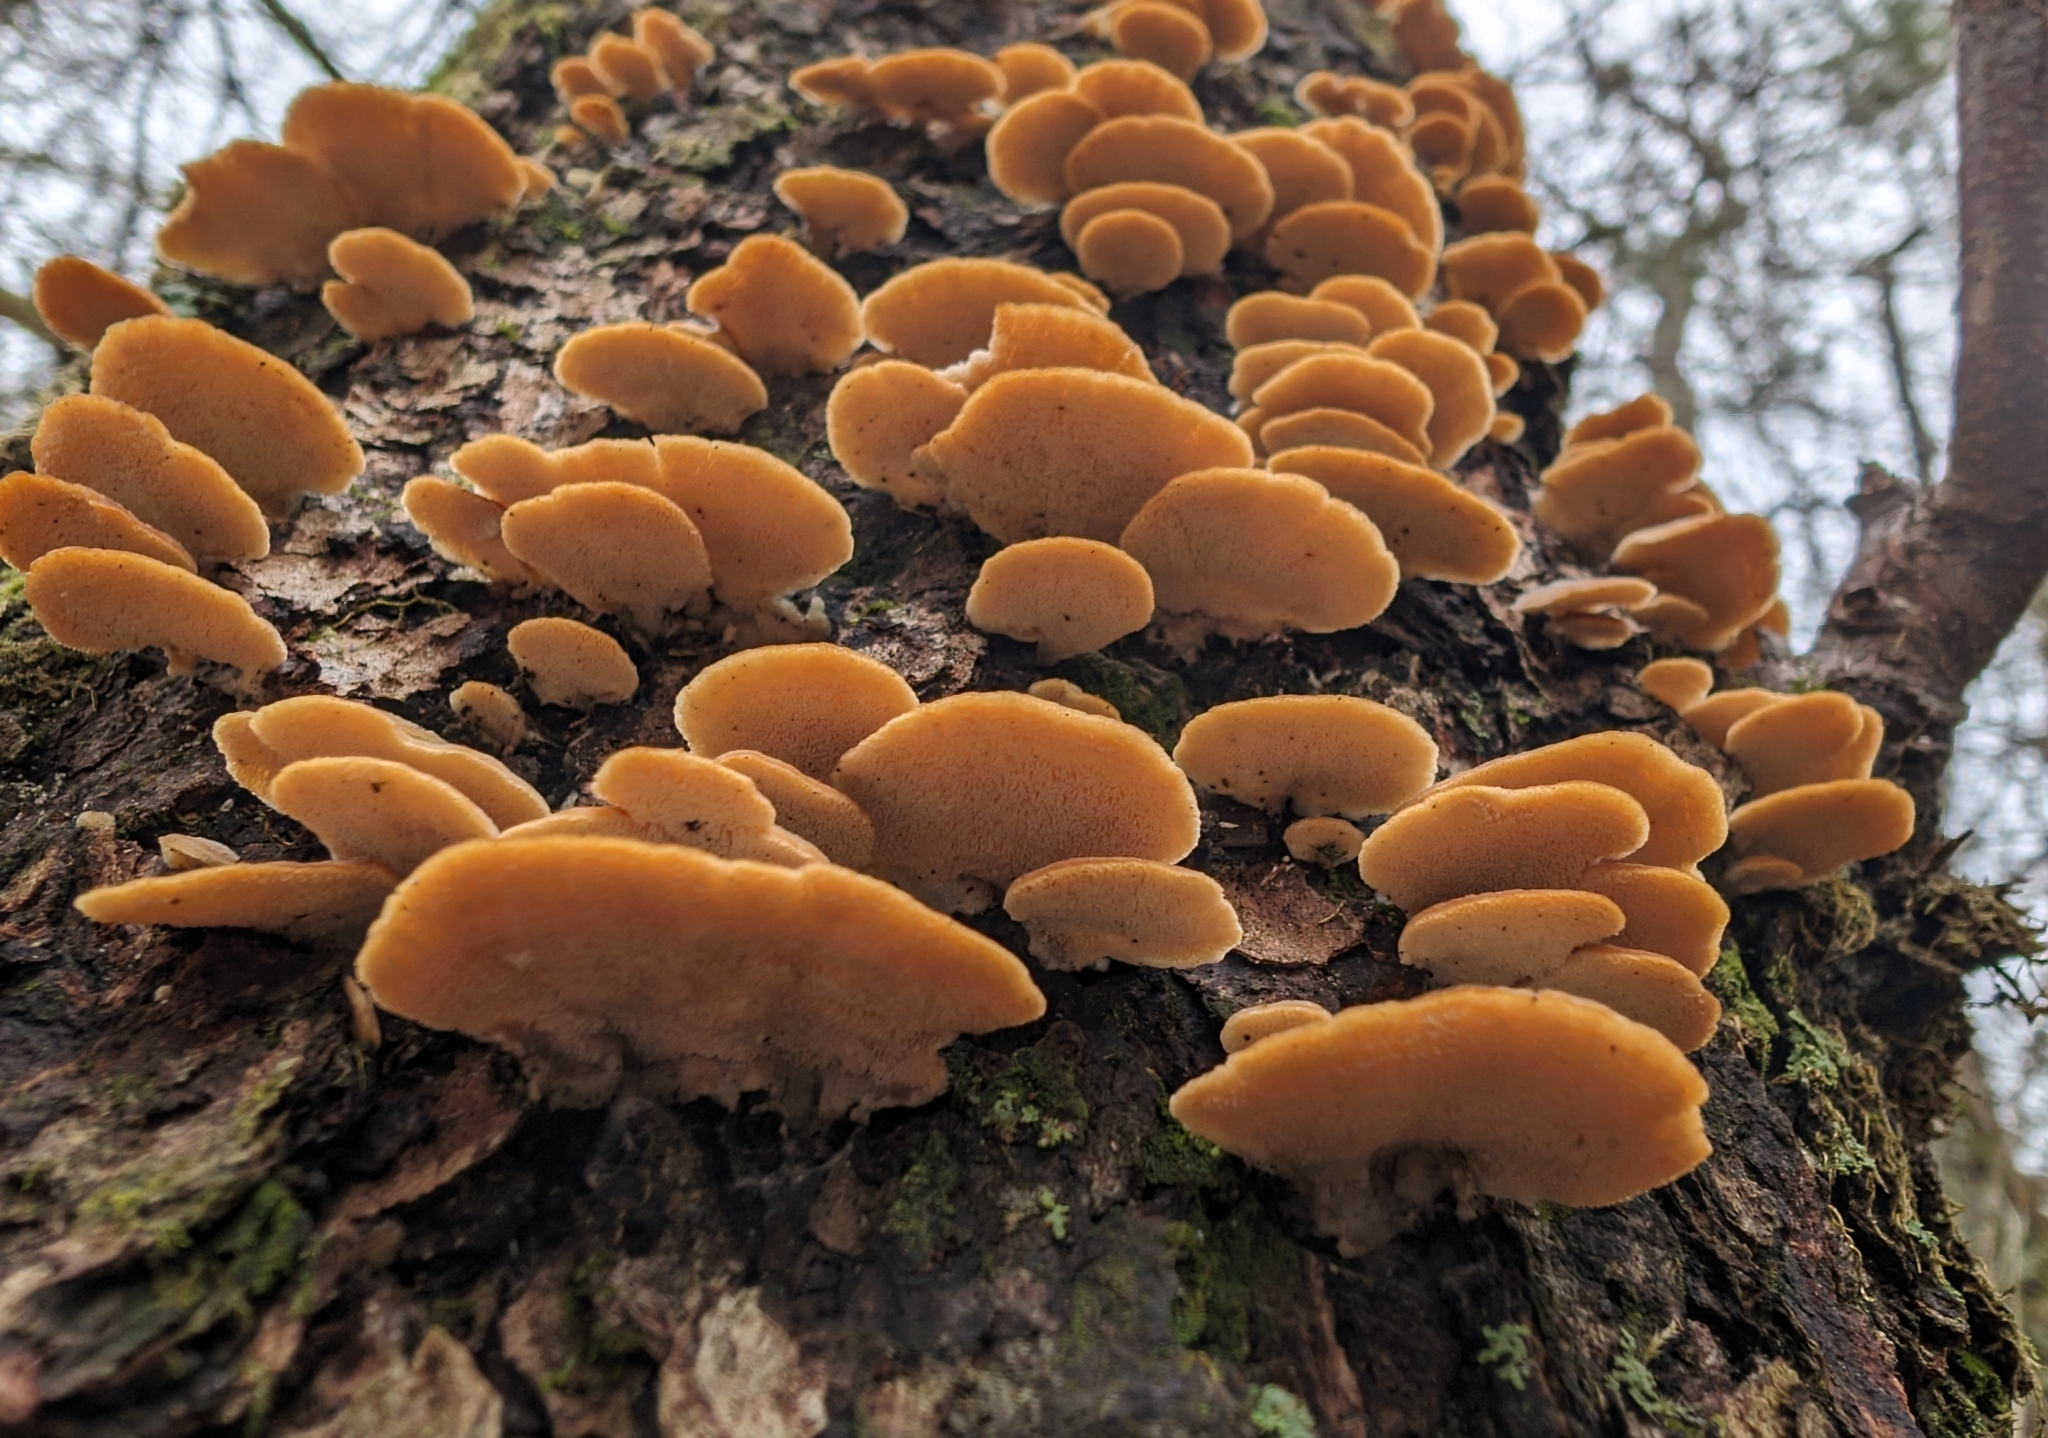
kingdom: Fungi
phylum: Basidiomycota
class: Agaricomycetes
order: Hymenochaetales
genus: Trichaptum
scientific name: Trichaptum biforme
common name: Violet-toothed polypore
